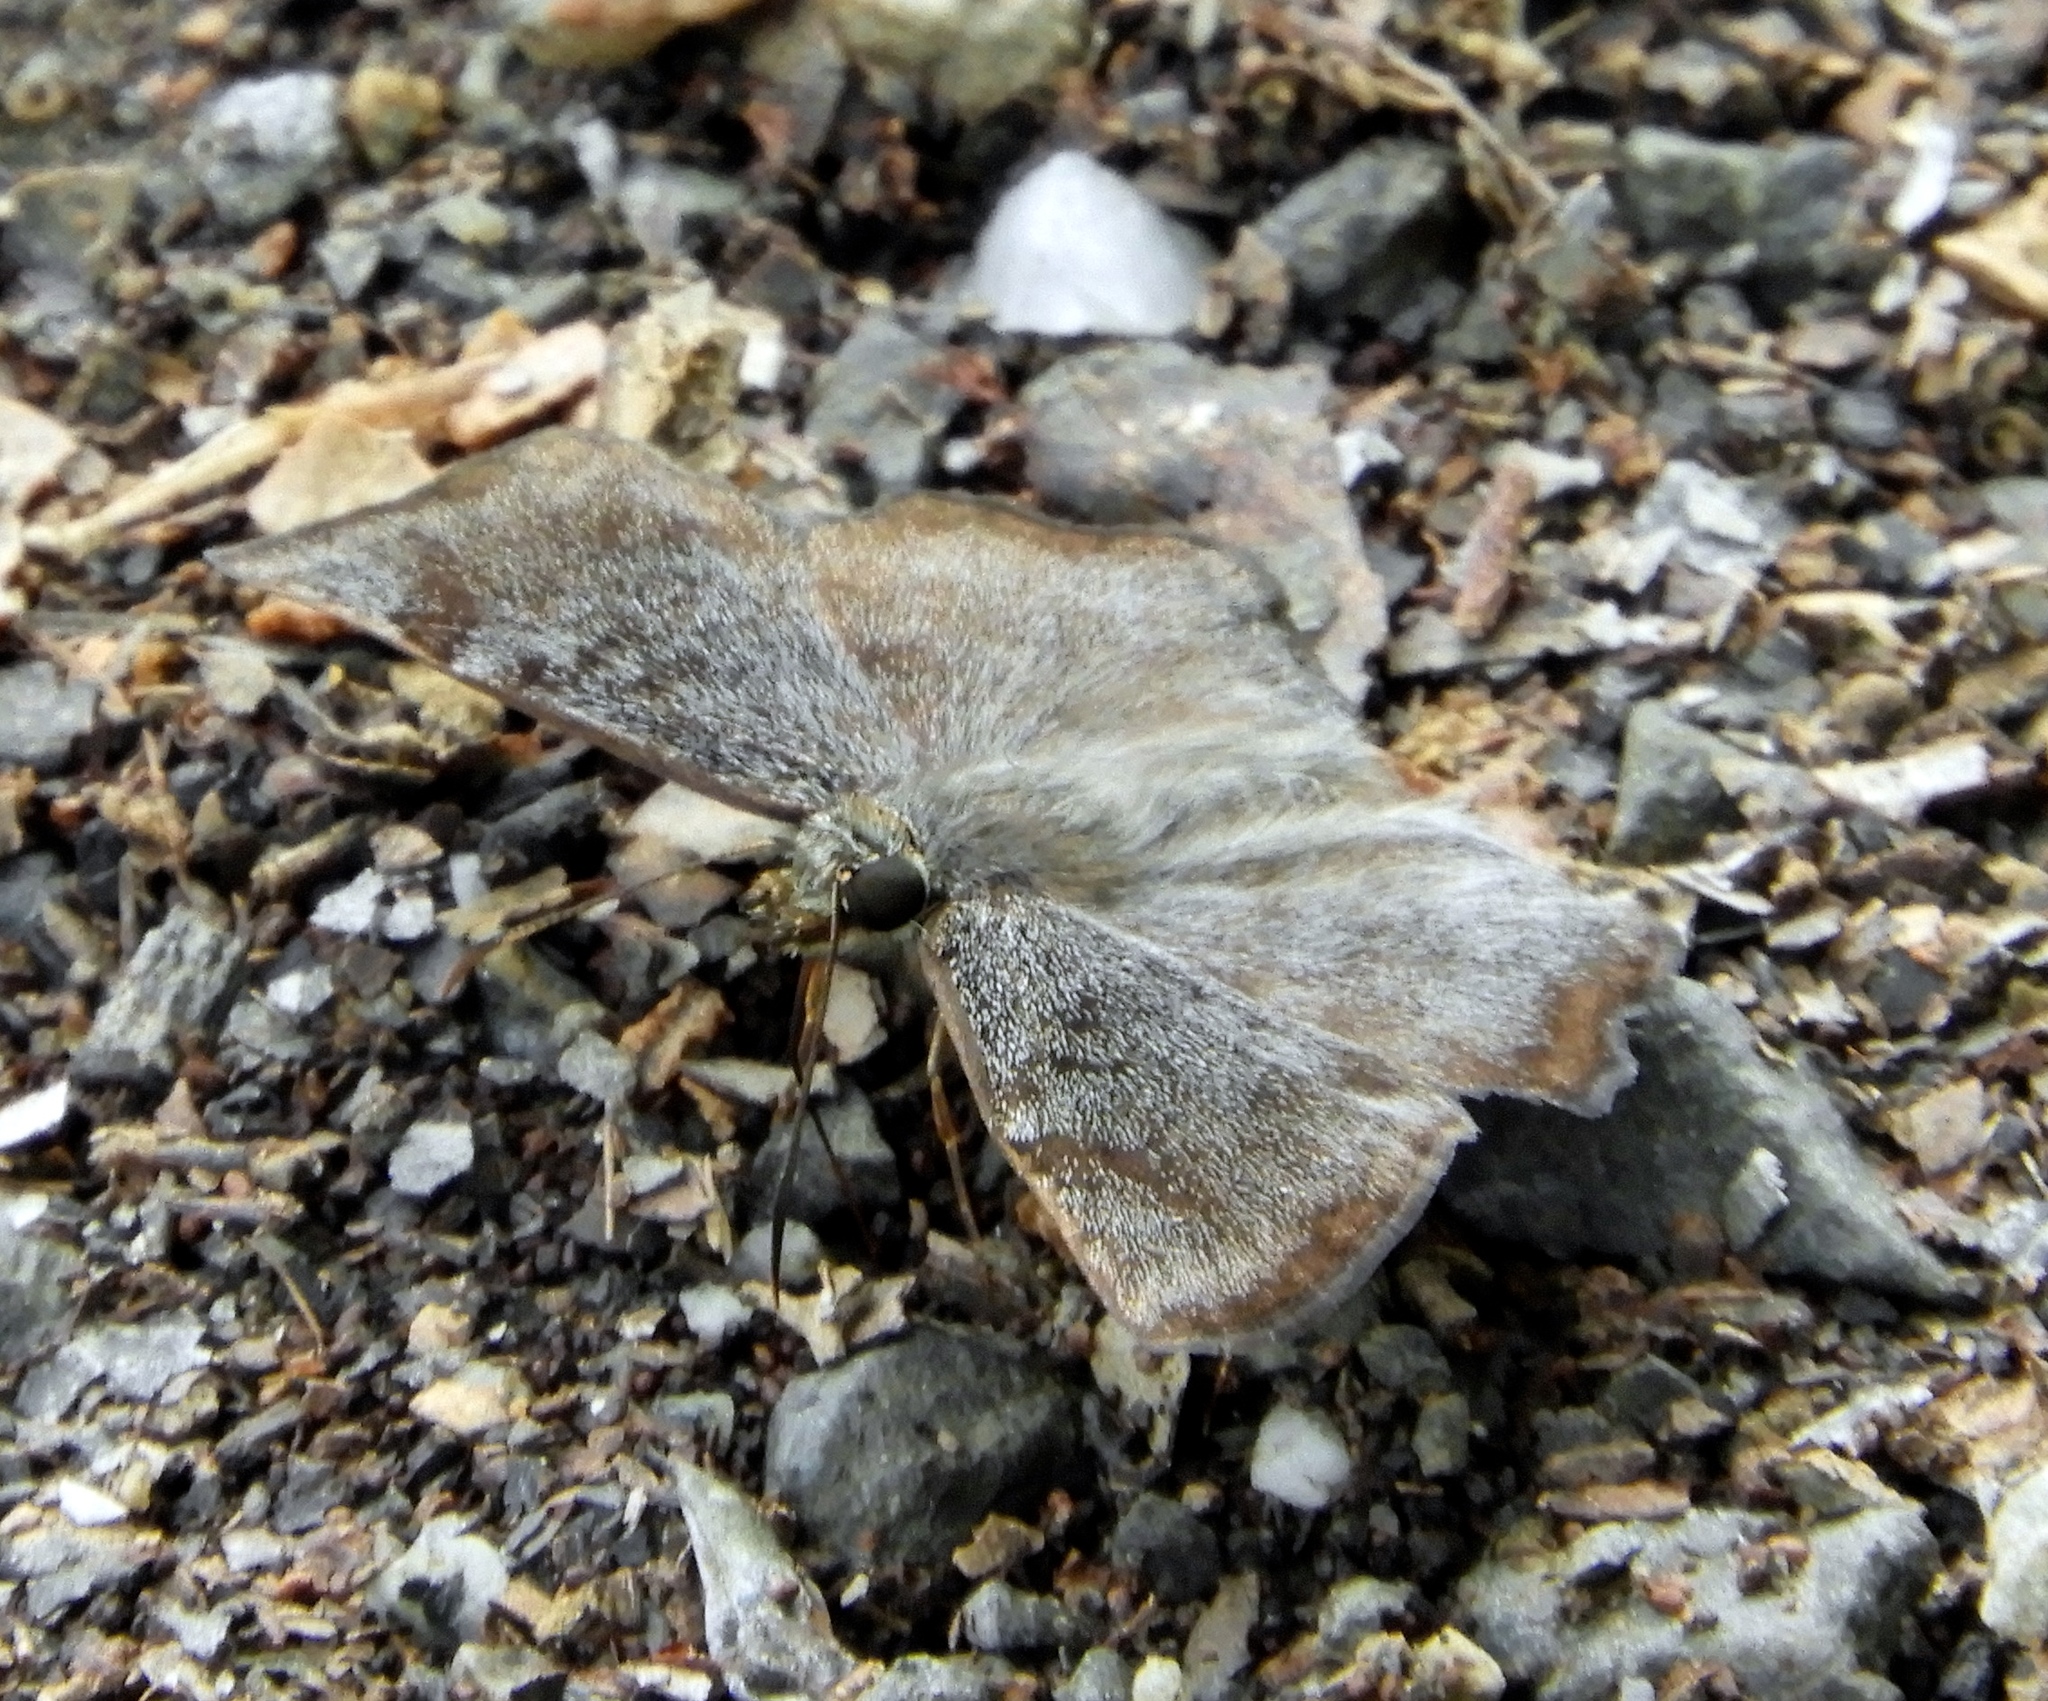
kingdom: Animalia
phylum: Arthropoda
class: Insecta
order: Lepidoptera
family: Hesperiidae
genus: Antigonus
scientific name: Antigonus erosus
